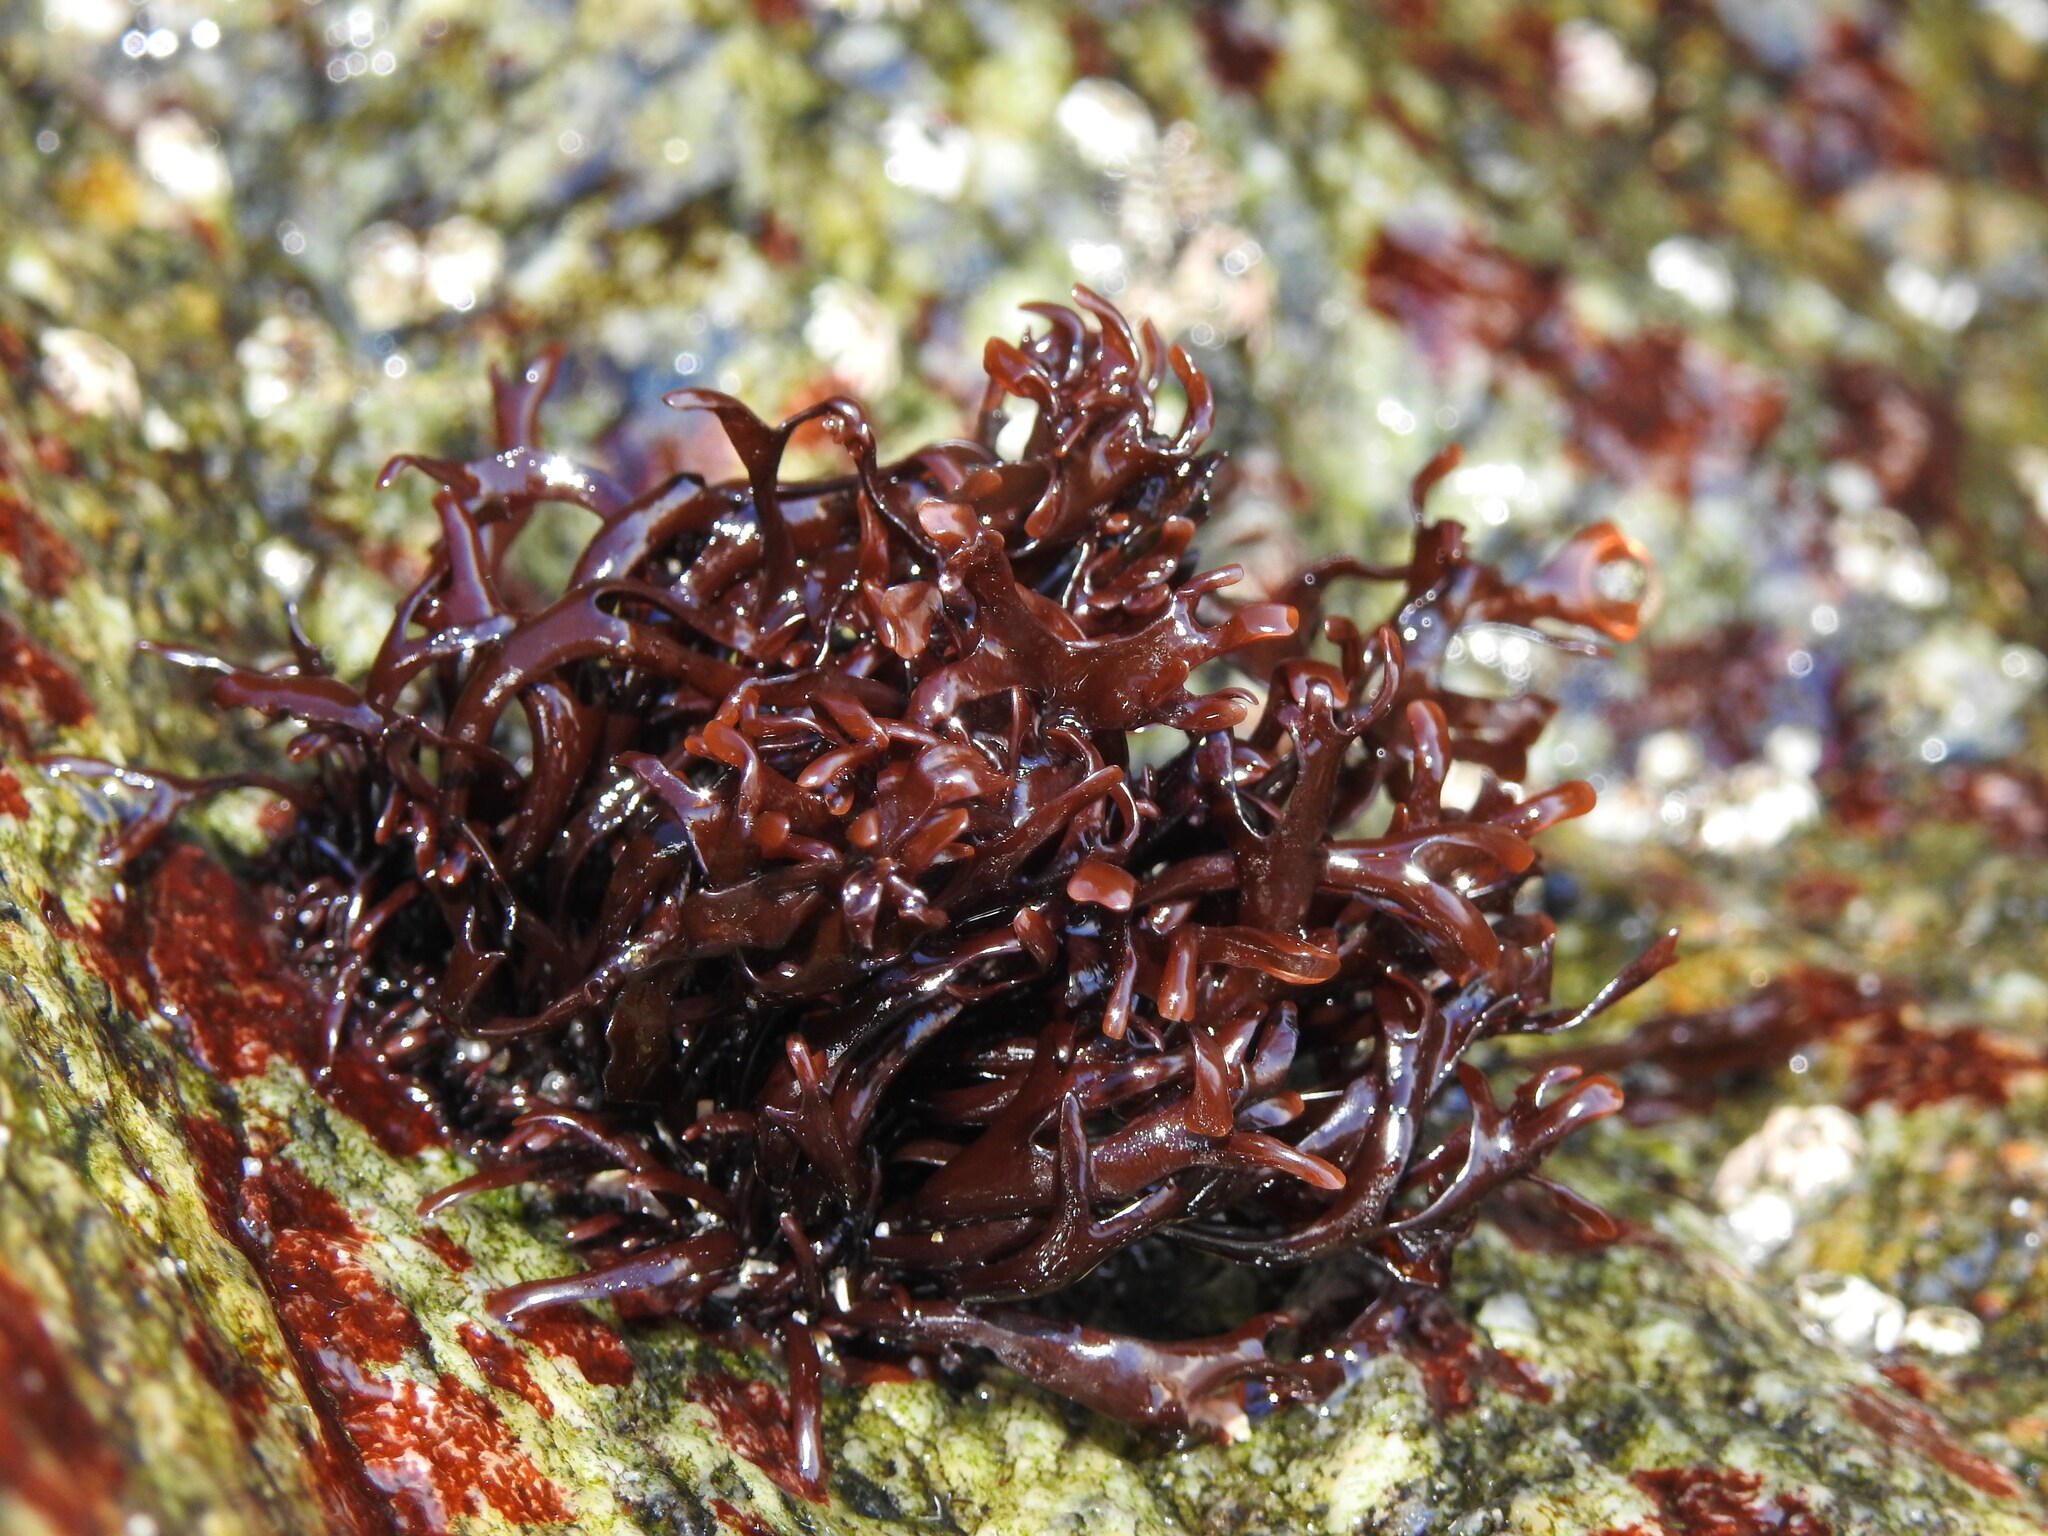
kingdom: Plantae
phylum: Rhodophyta
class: Florideophyceae
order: Gigartinales
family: Gigartinaceae
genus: Chondrus
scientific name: Chondrus crispus
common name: Carrageen
